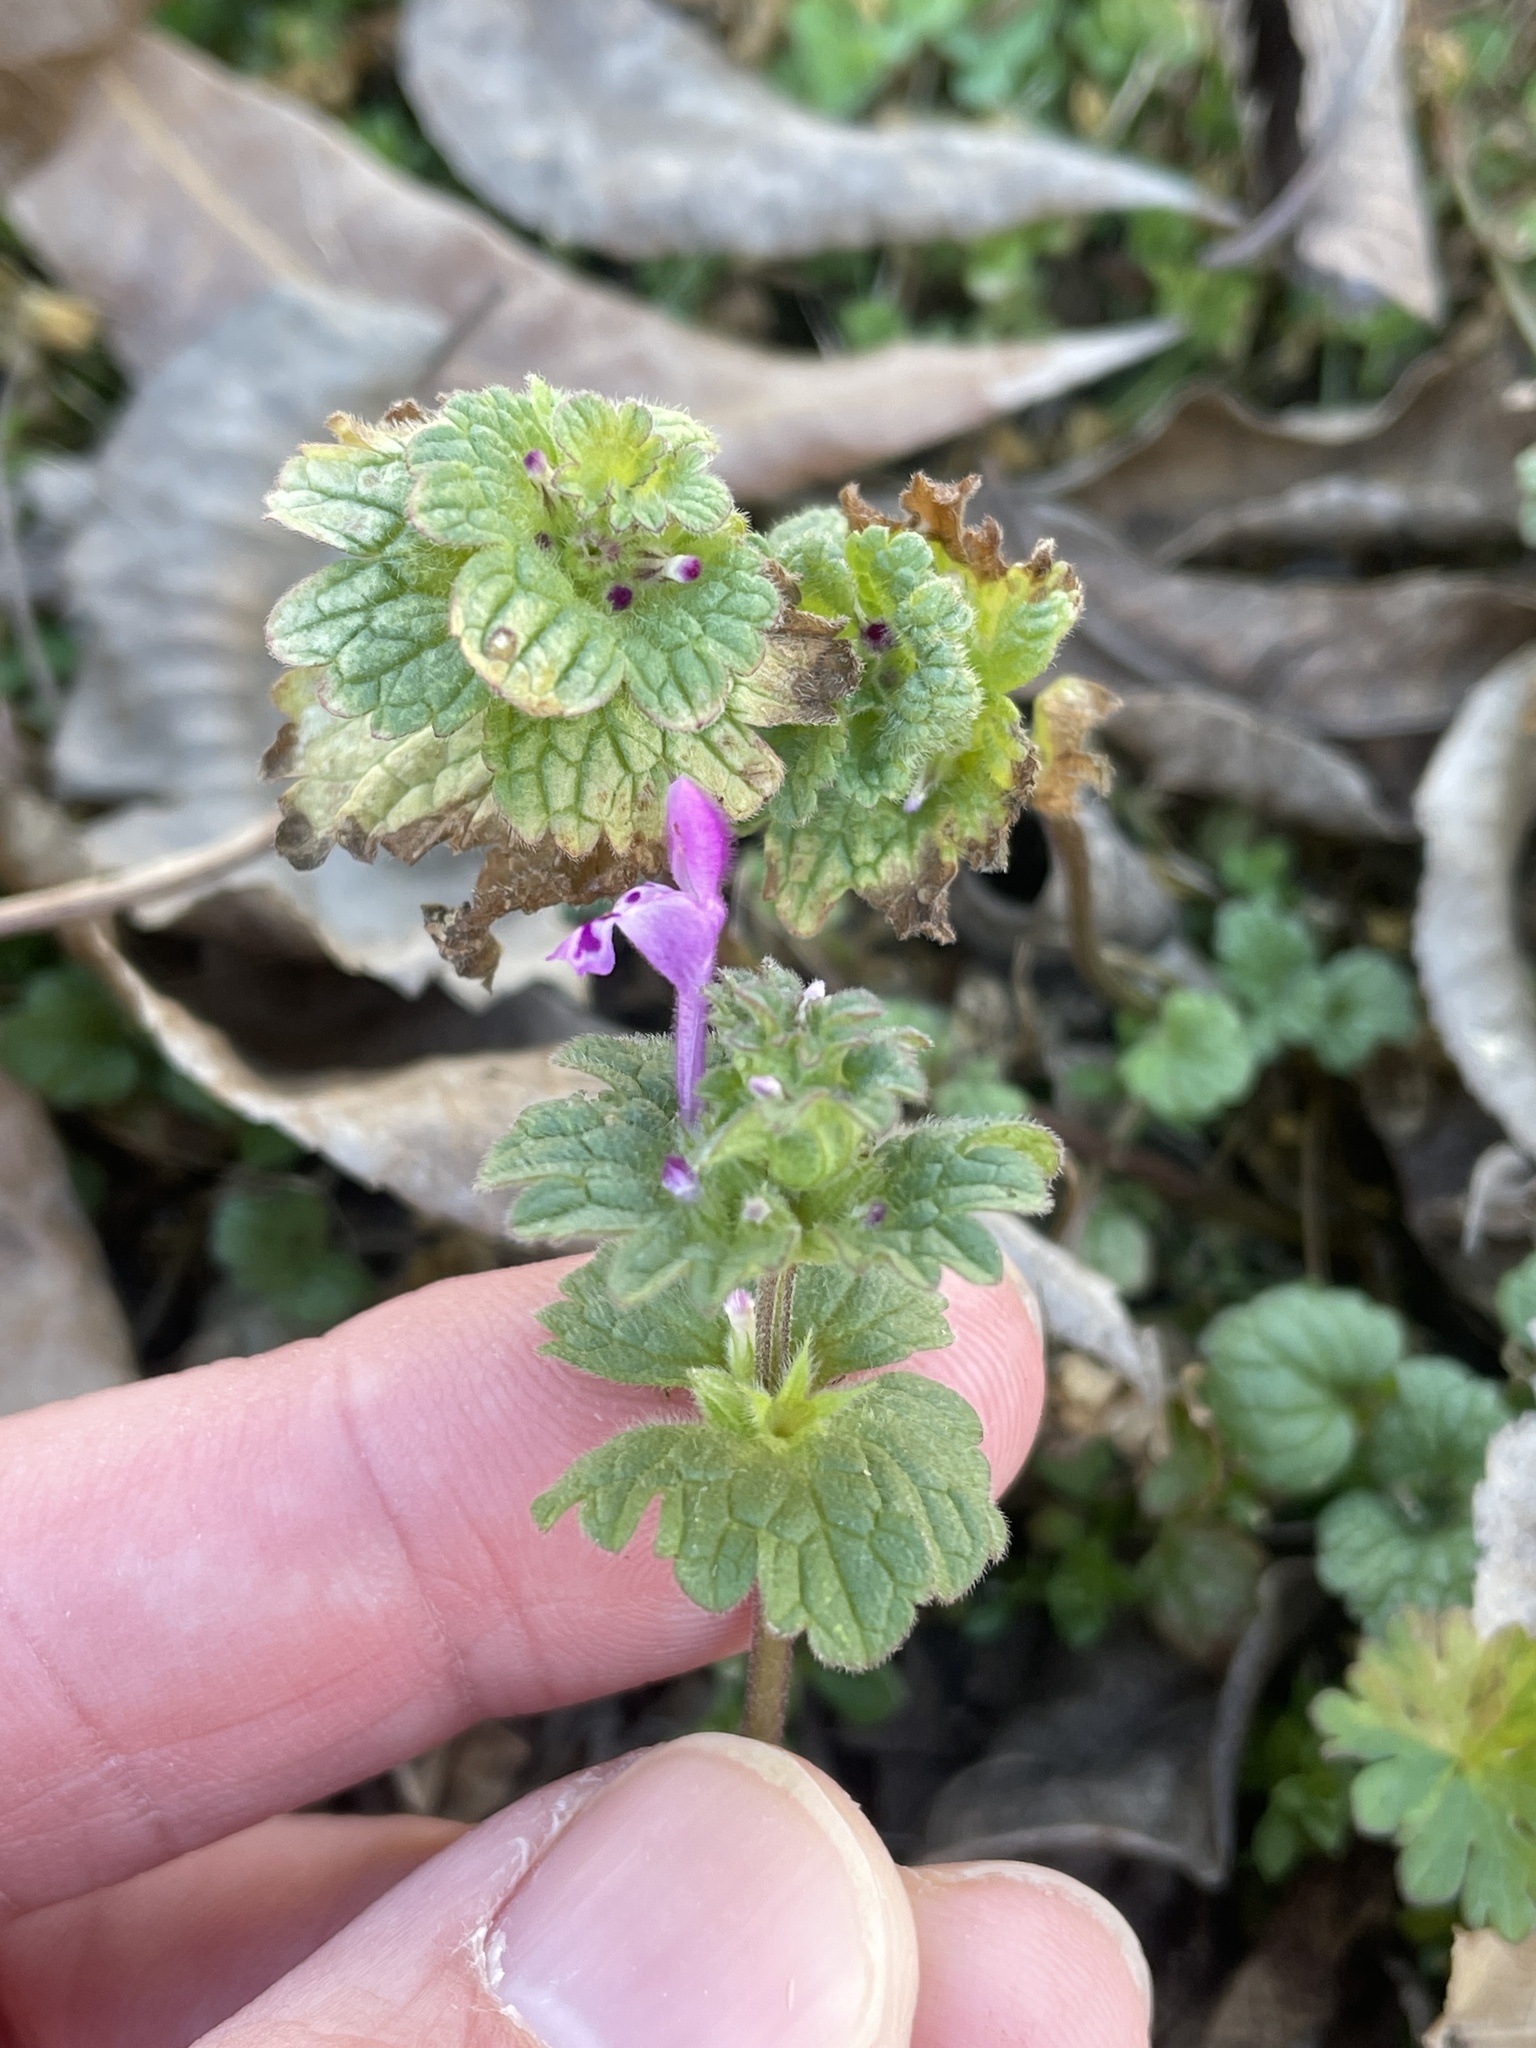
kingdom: Plantae
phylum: Tracheophyta
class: Magnoliopsida
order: Lamiales
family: Lamiaceae
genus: Lamium
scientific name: Lamium amplexicaule
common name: Henbit dead-nettle
